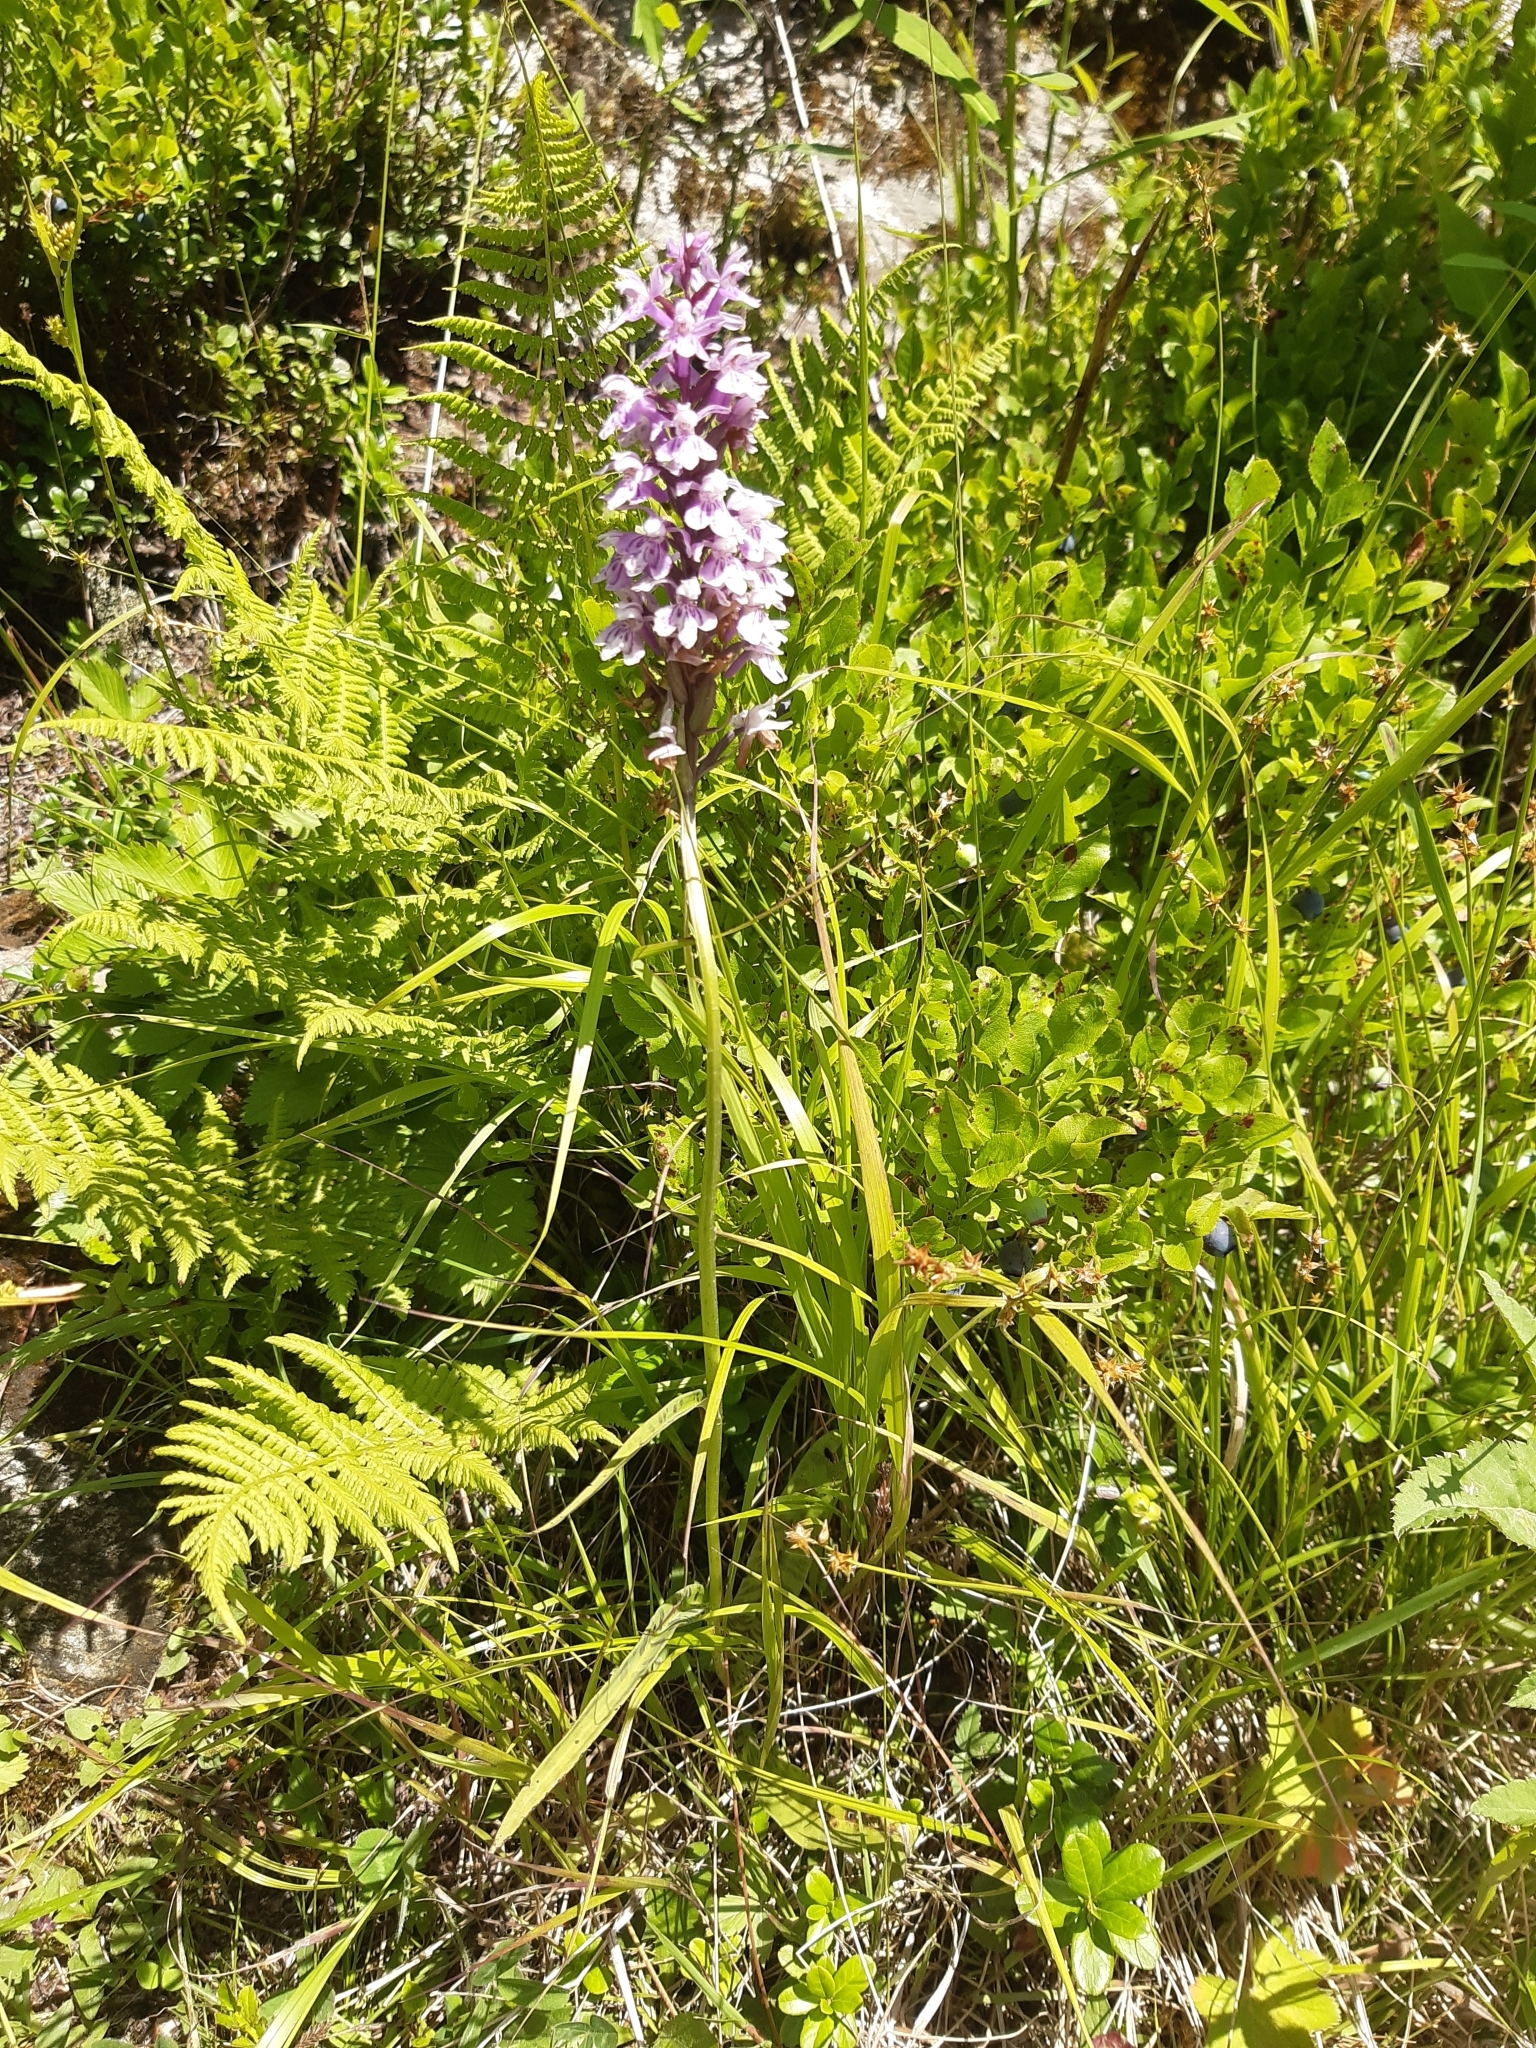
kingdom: Plantae
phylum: Tracheophyta
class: Liliopsida
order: Asparagales
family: Orchidaceae
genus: Dactylorhiza
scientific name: Dactylorhiza maculata
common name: Heath spotted-orchid
